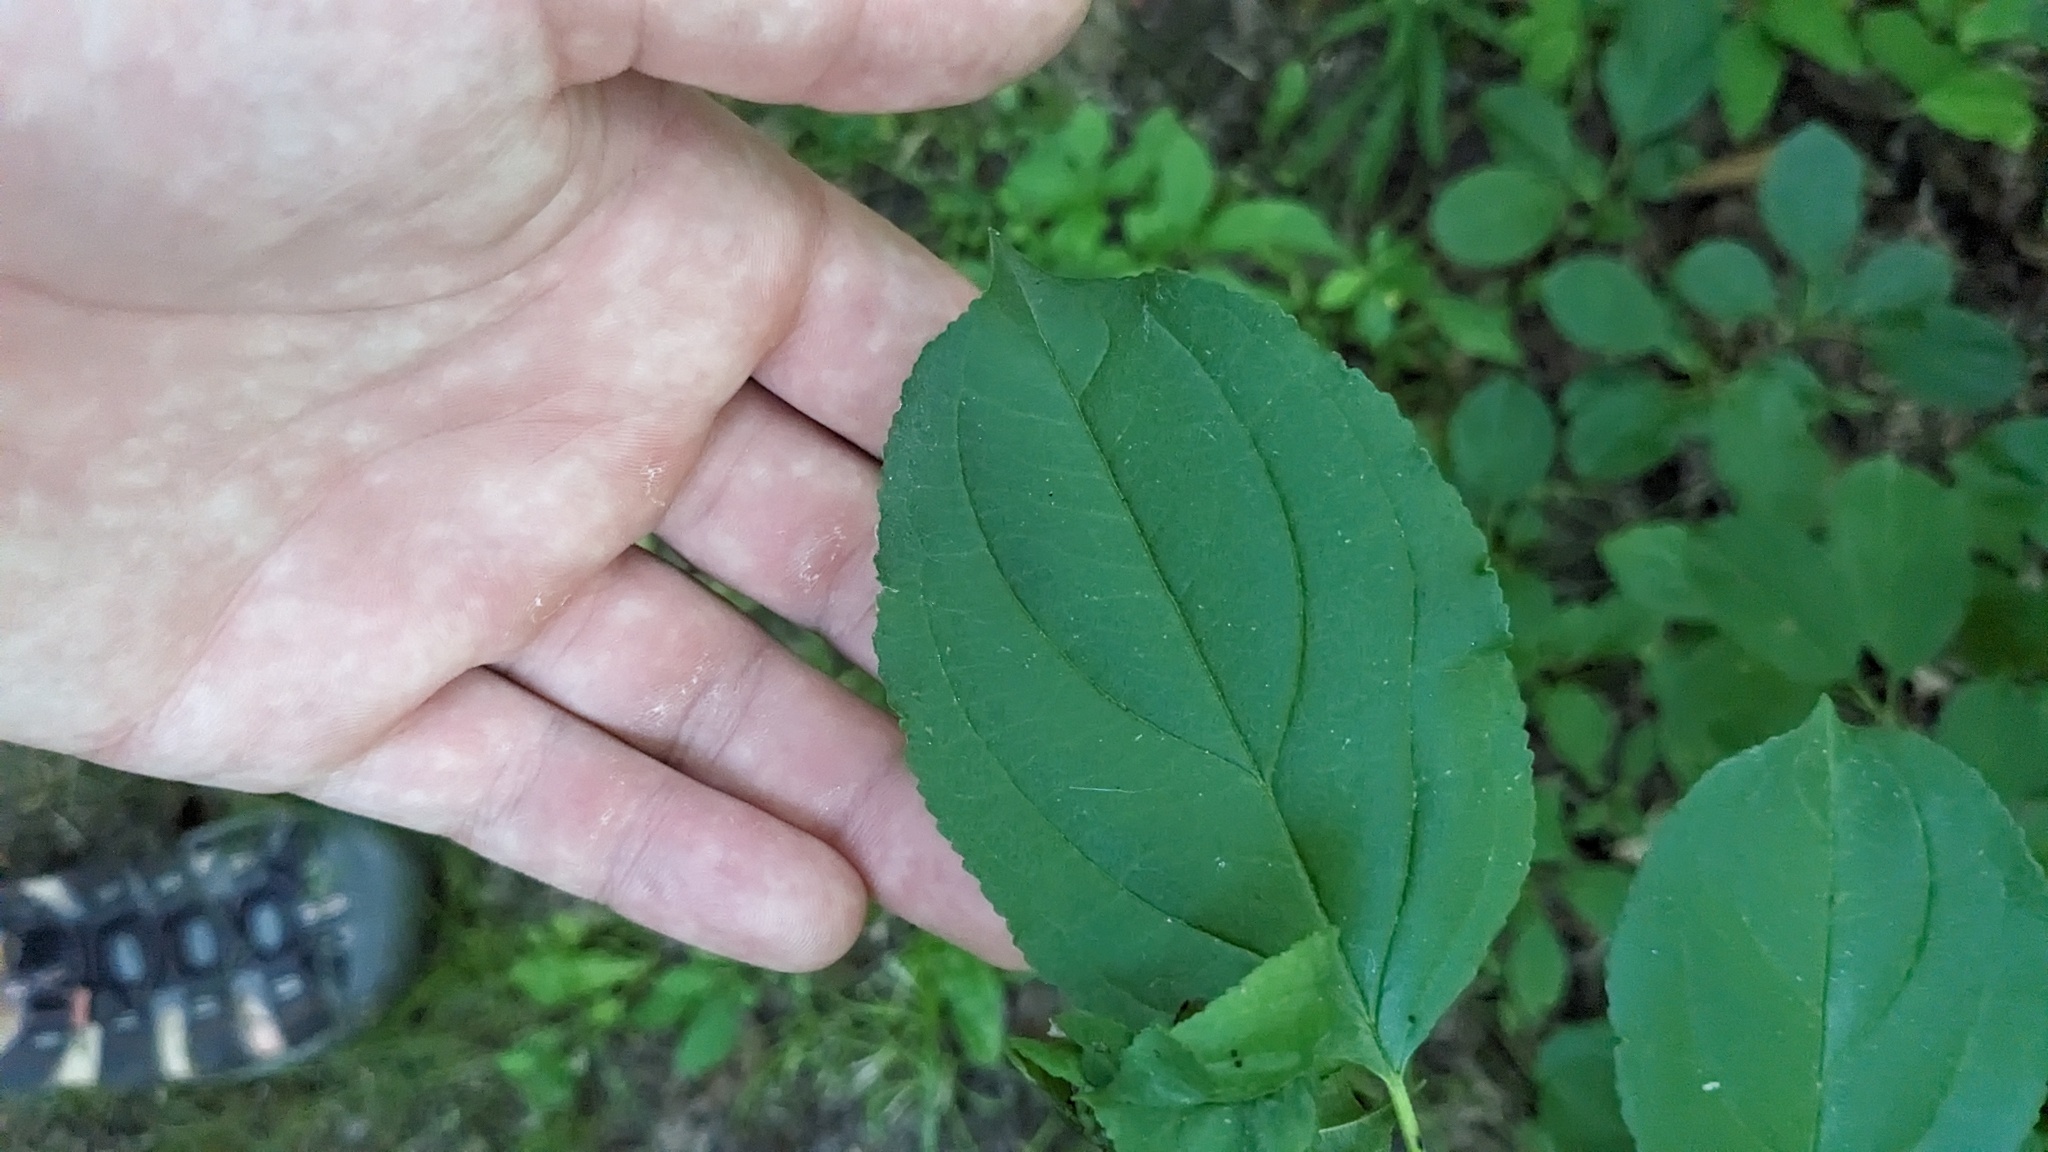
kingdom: Plantae
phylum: Tracheophyta
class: Magnoliopsida
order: Rosales
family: Rhamnaceae
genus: Rhamnus
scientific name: Rhamnus cathartica
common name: Common buckthorn
